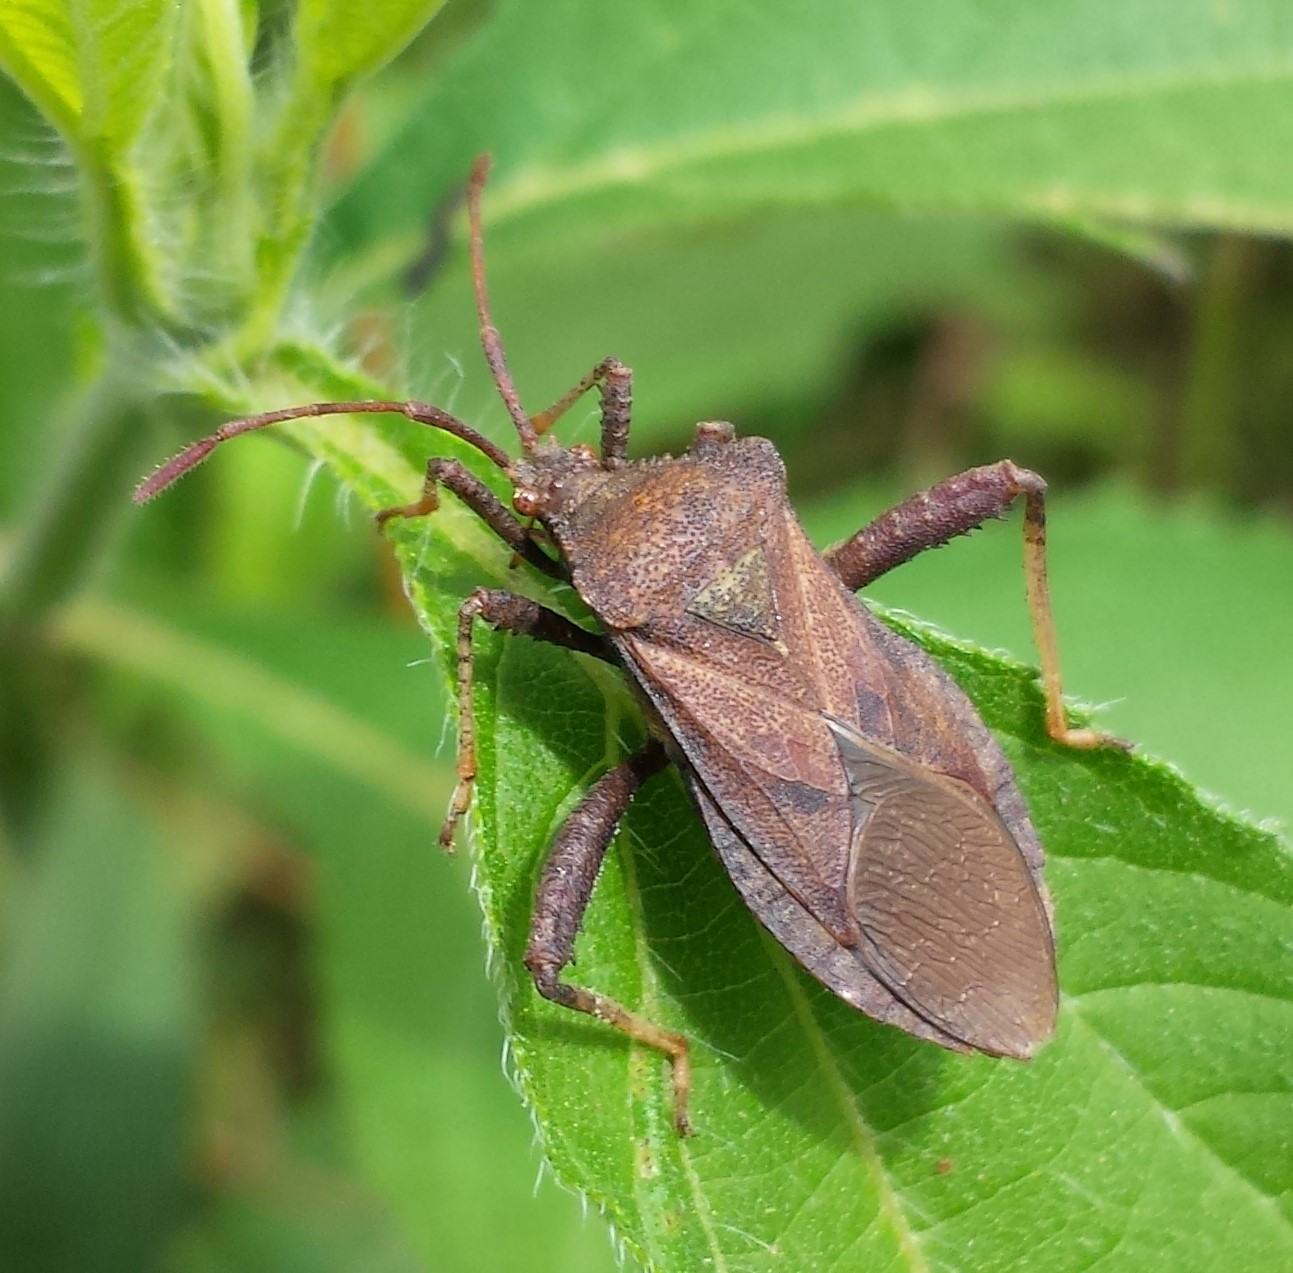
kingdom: Animalia
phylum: Arthropoda
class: Insecta
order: Hemiptera
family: Coreidae
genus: Euthochtha
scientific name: Euthochtha galeator
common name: Helmeted squash bug
